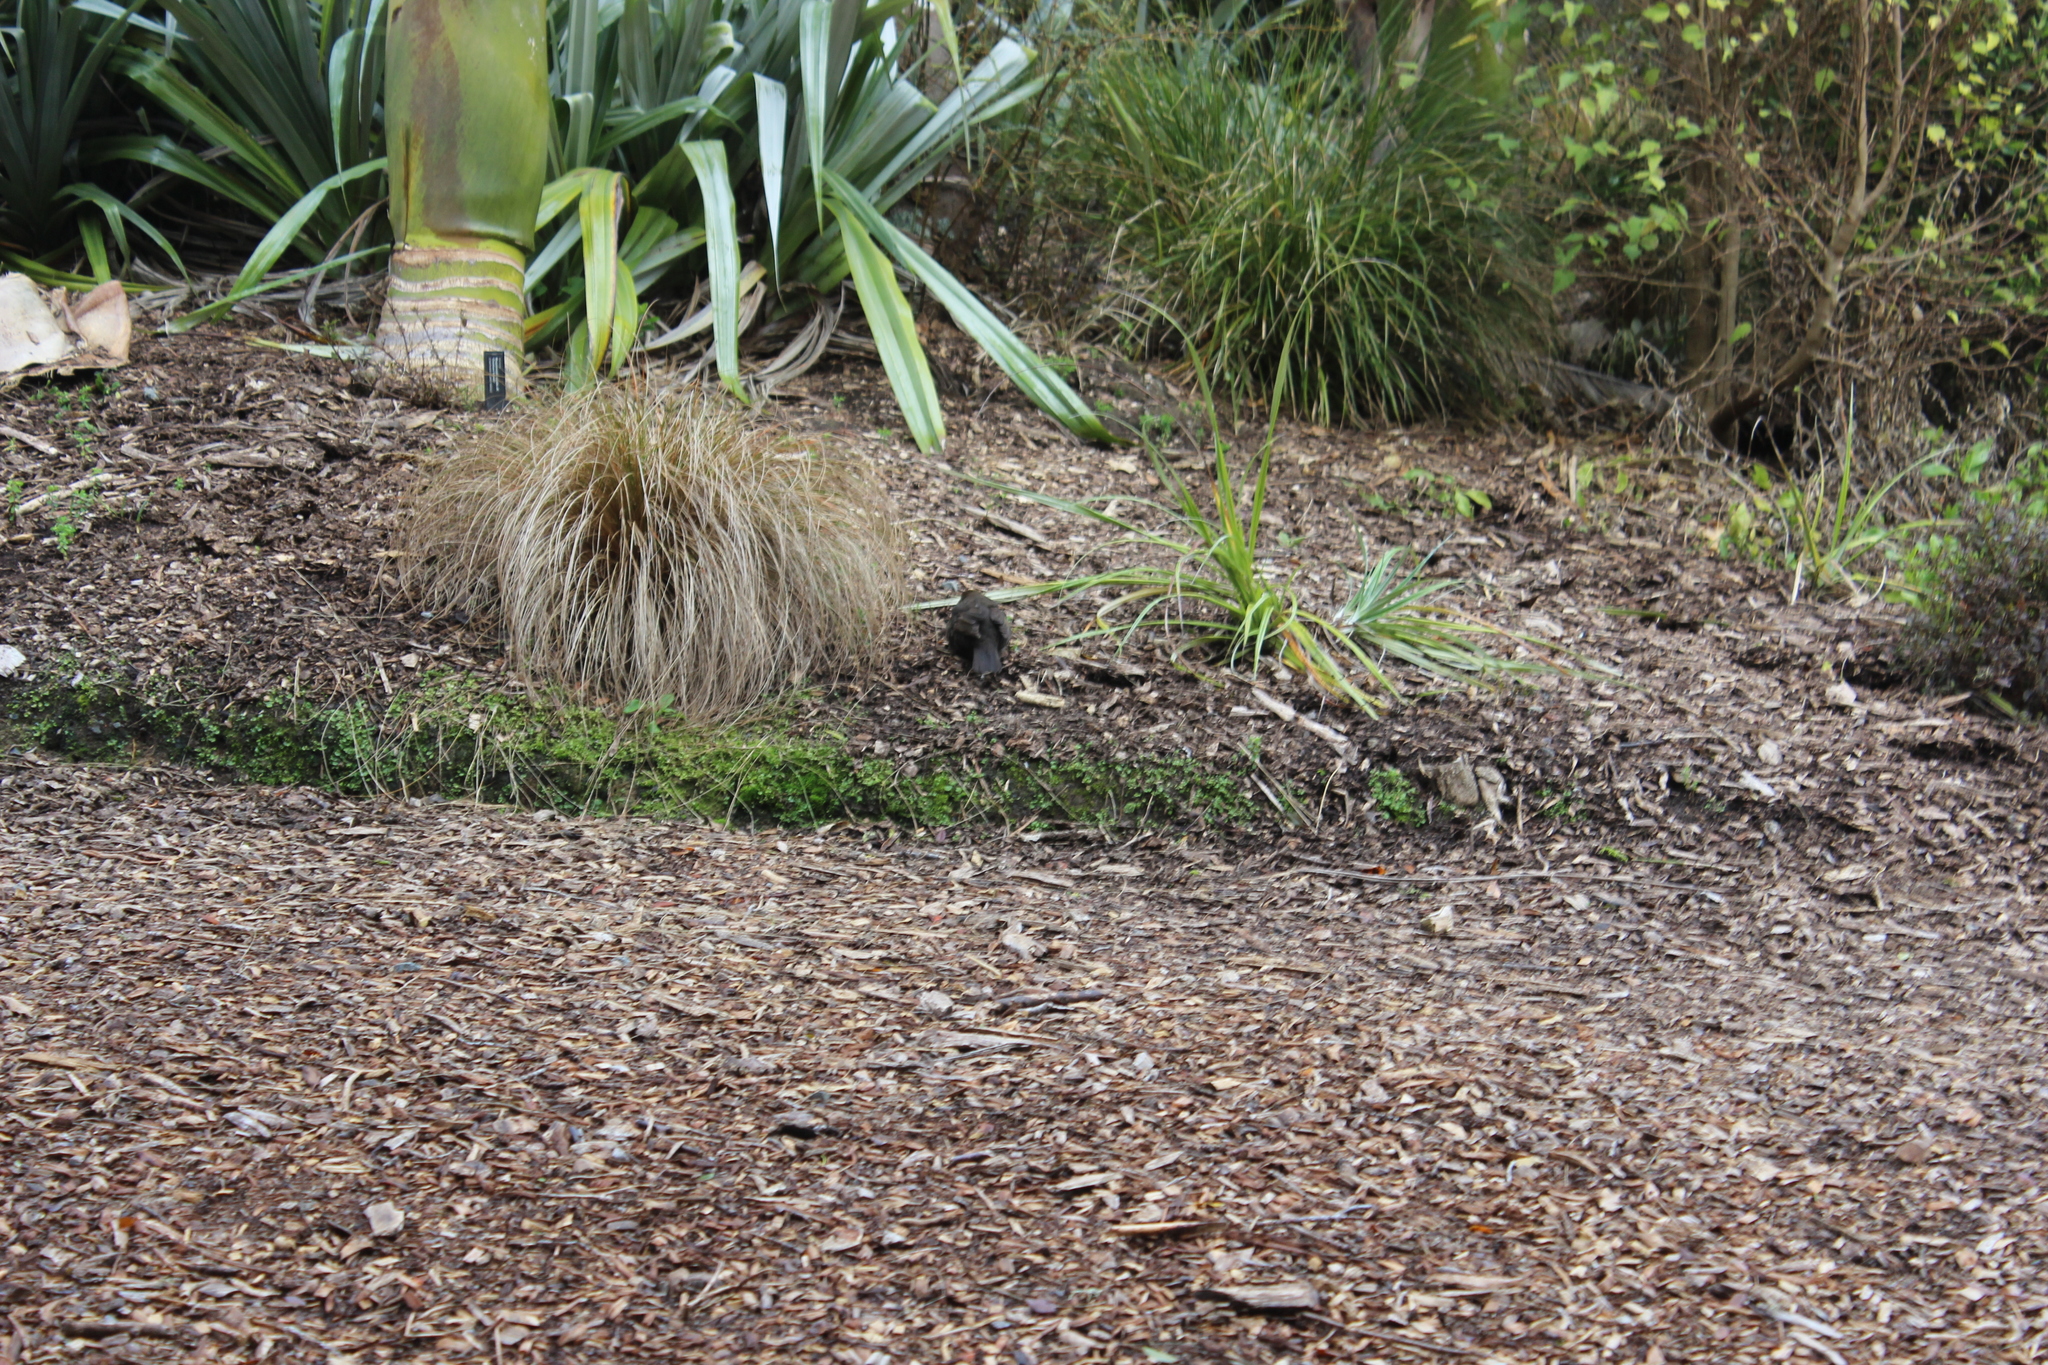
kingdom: Animalia
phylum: Chordata
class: Aves
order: Passeriformes
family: Turdidae
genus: Turdus
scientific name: Turdus merula
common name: Common blackbird
